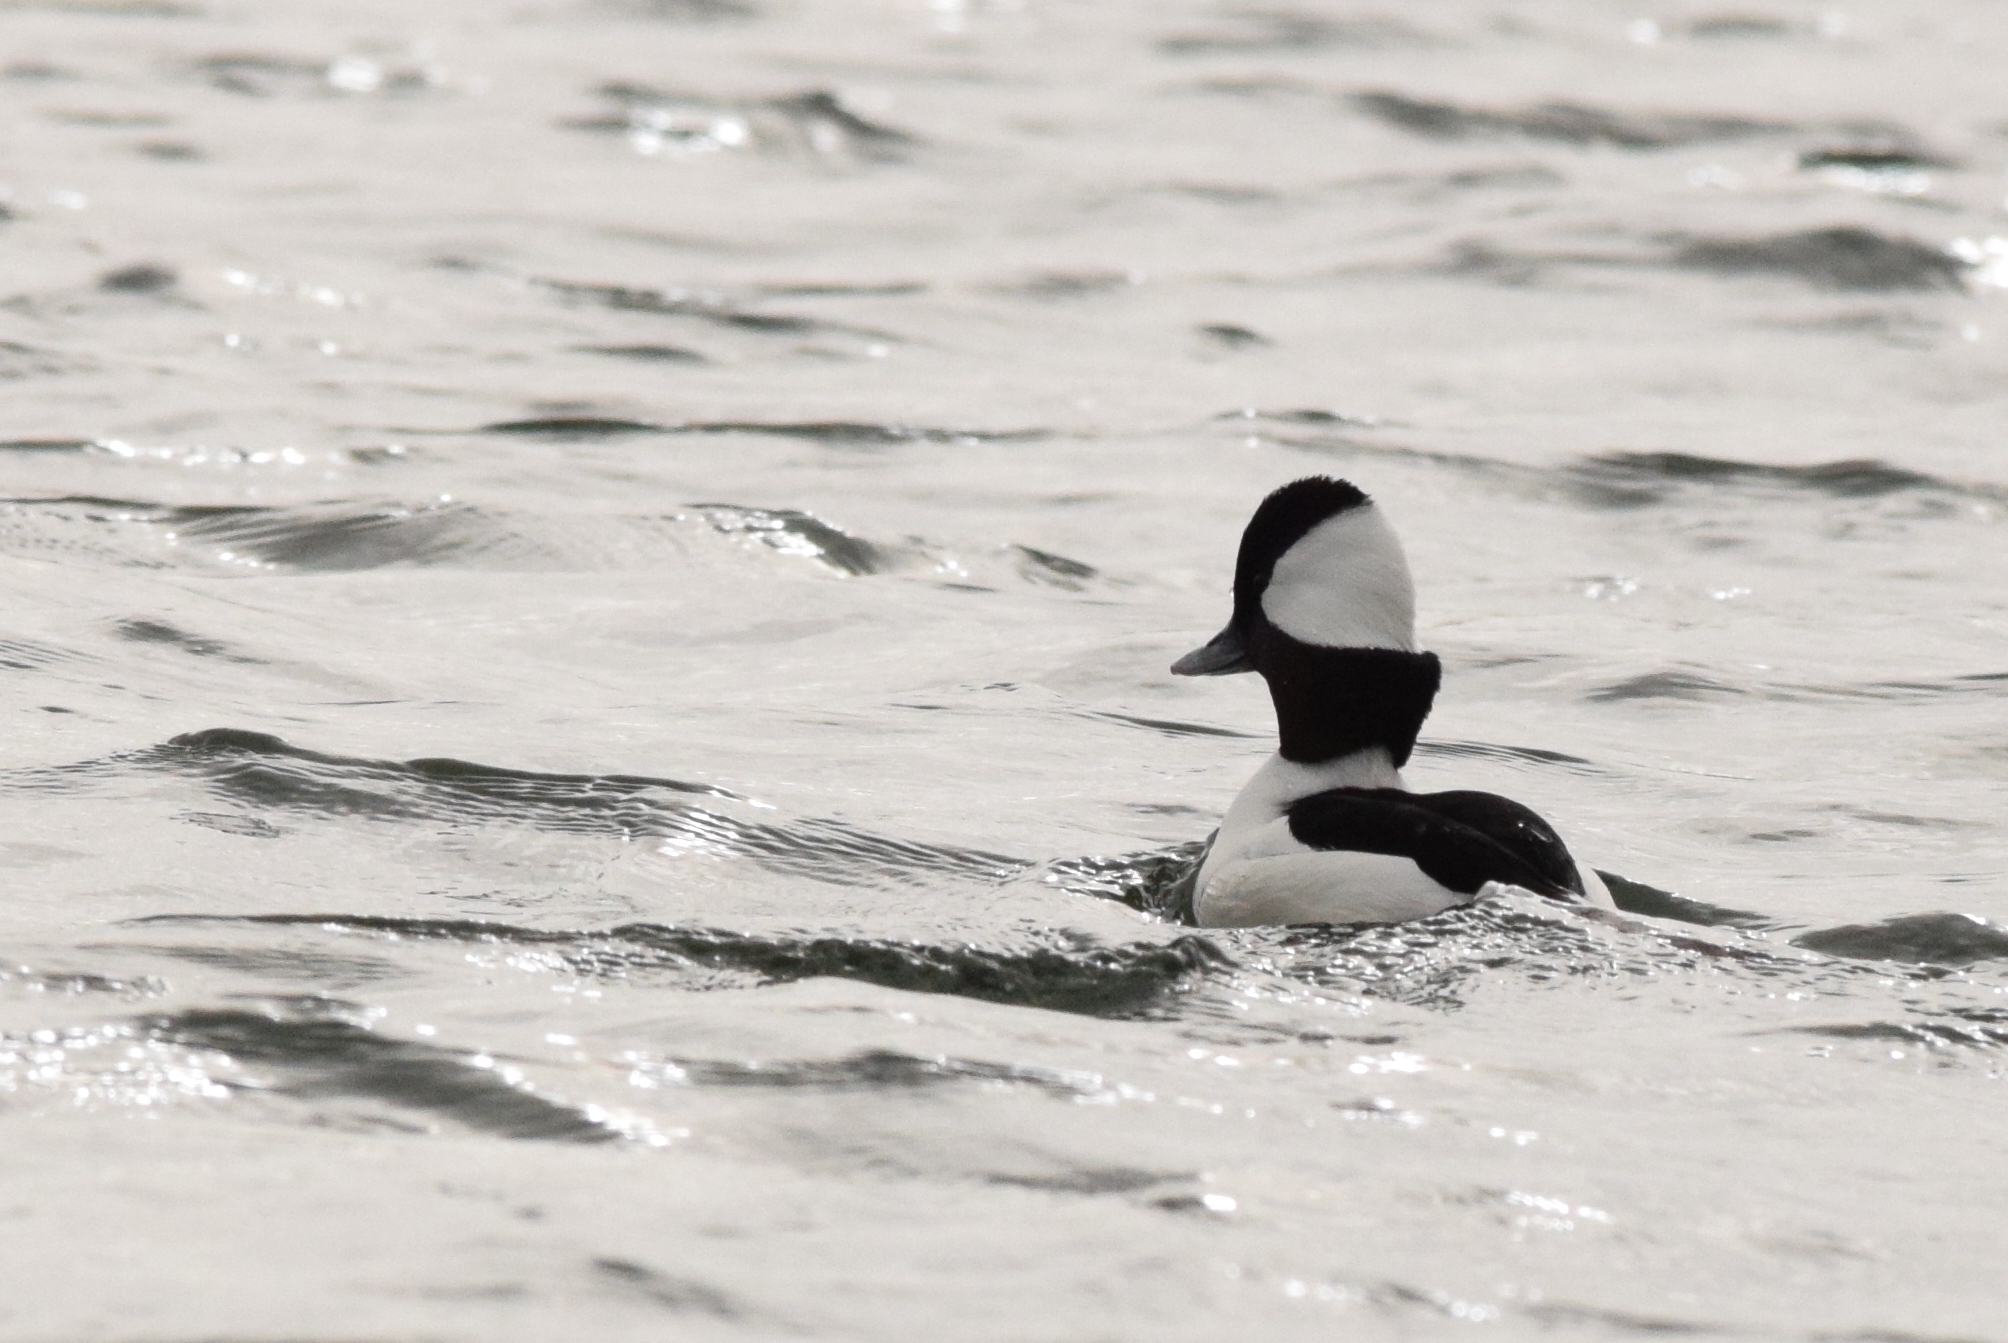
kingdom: Animalia
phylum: Chordata
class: Aves
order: Anseriformes
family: Anatidae
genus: Bucephala
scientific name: Bucephala albeola
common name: Bufflehead
